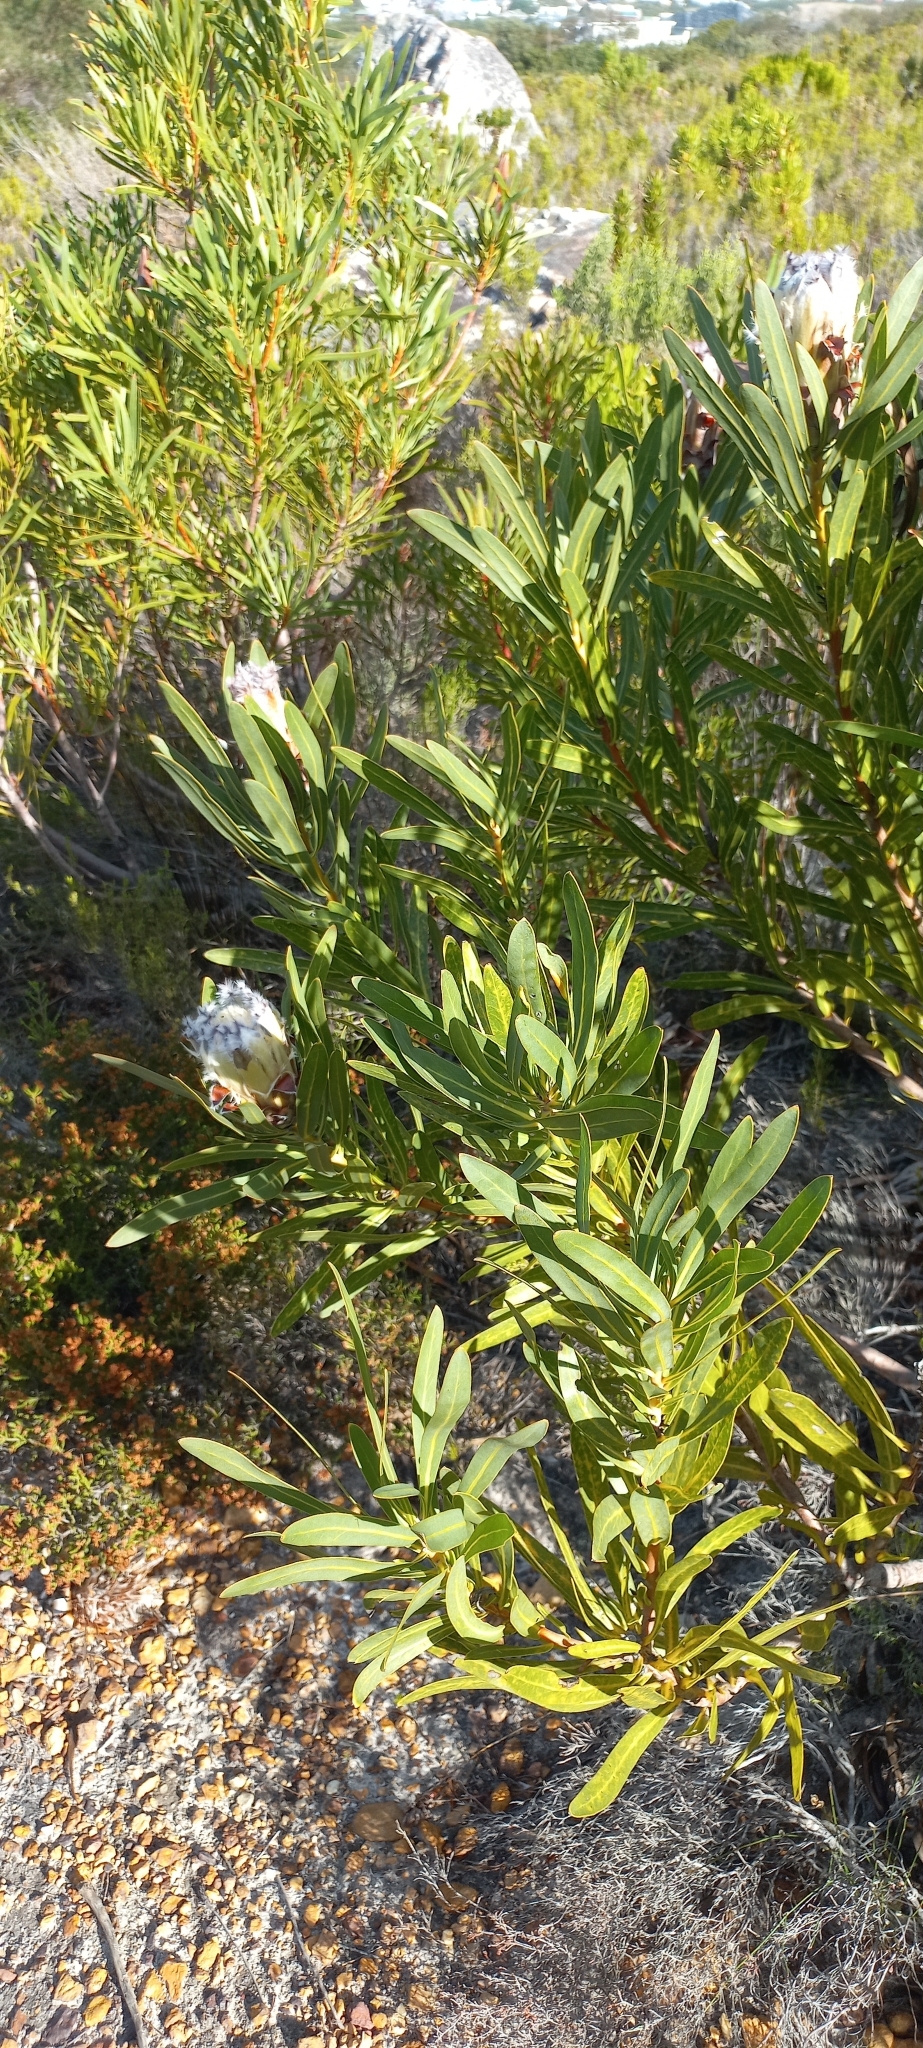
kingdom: Plantae
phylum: Tracheophyta
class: Magnoliopsida
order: Proteales
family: Proteaceae
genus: Protea
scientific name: Protea
